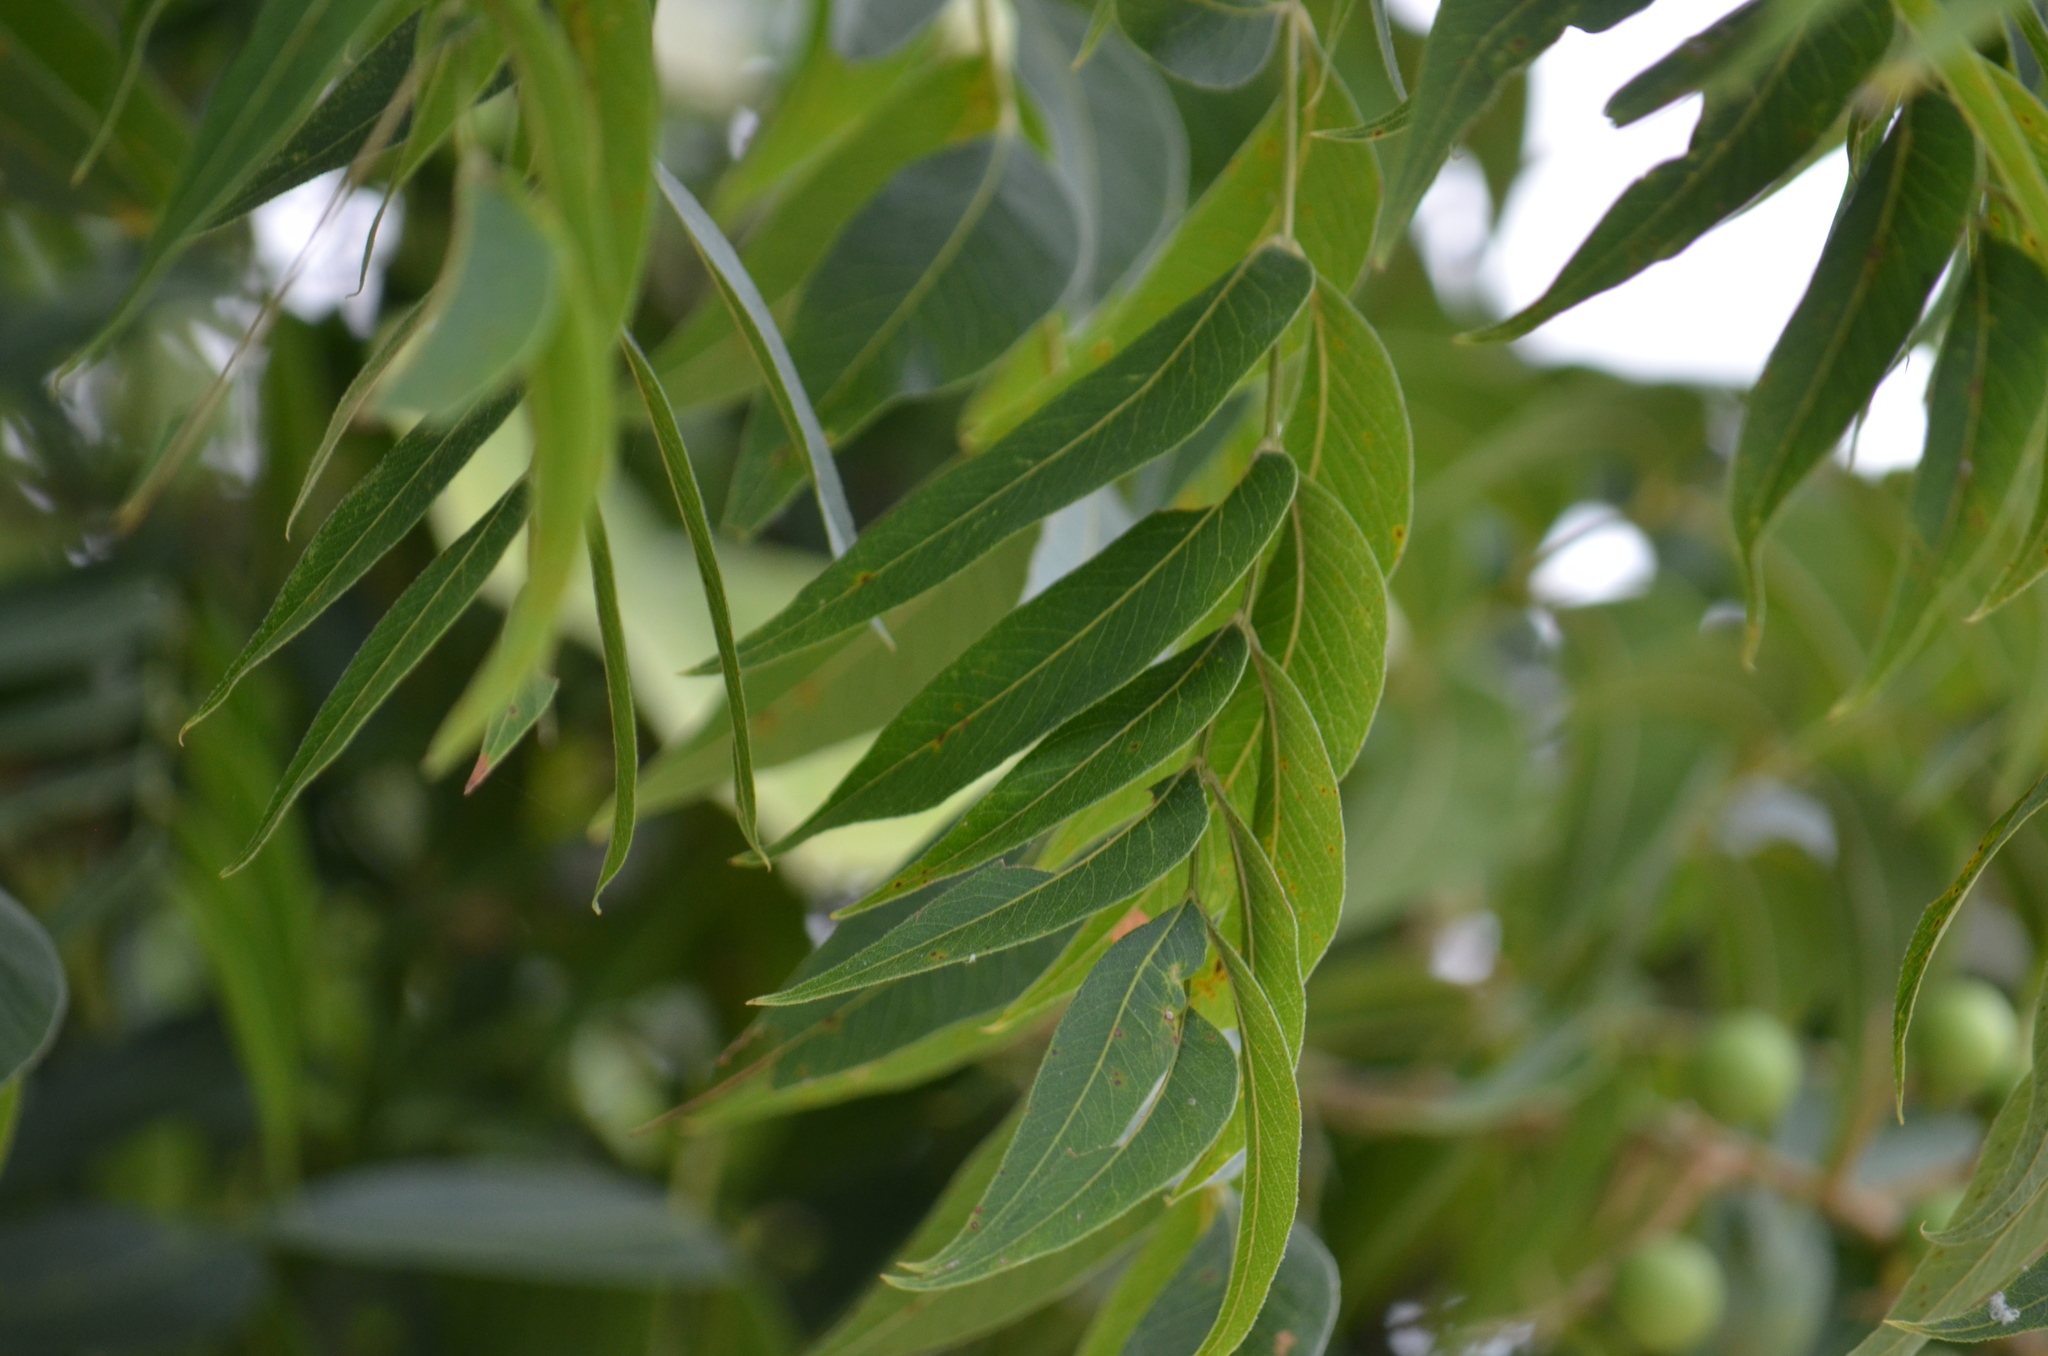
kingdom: Plantae
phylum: Tracheophyta
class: Magnoliopsida
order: Sapindales
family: Sapindaceae
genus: Sapindus
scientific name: Sapindus drummondii
